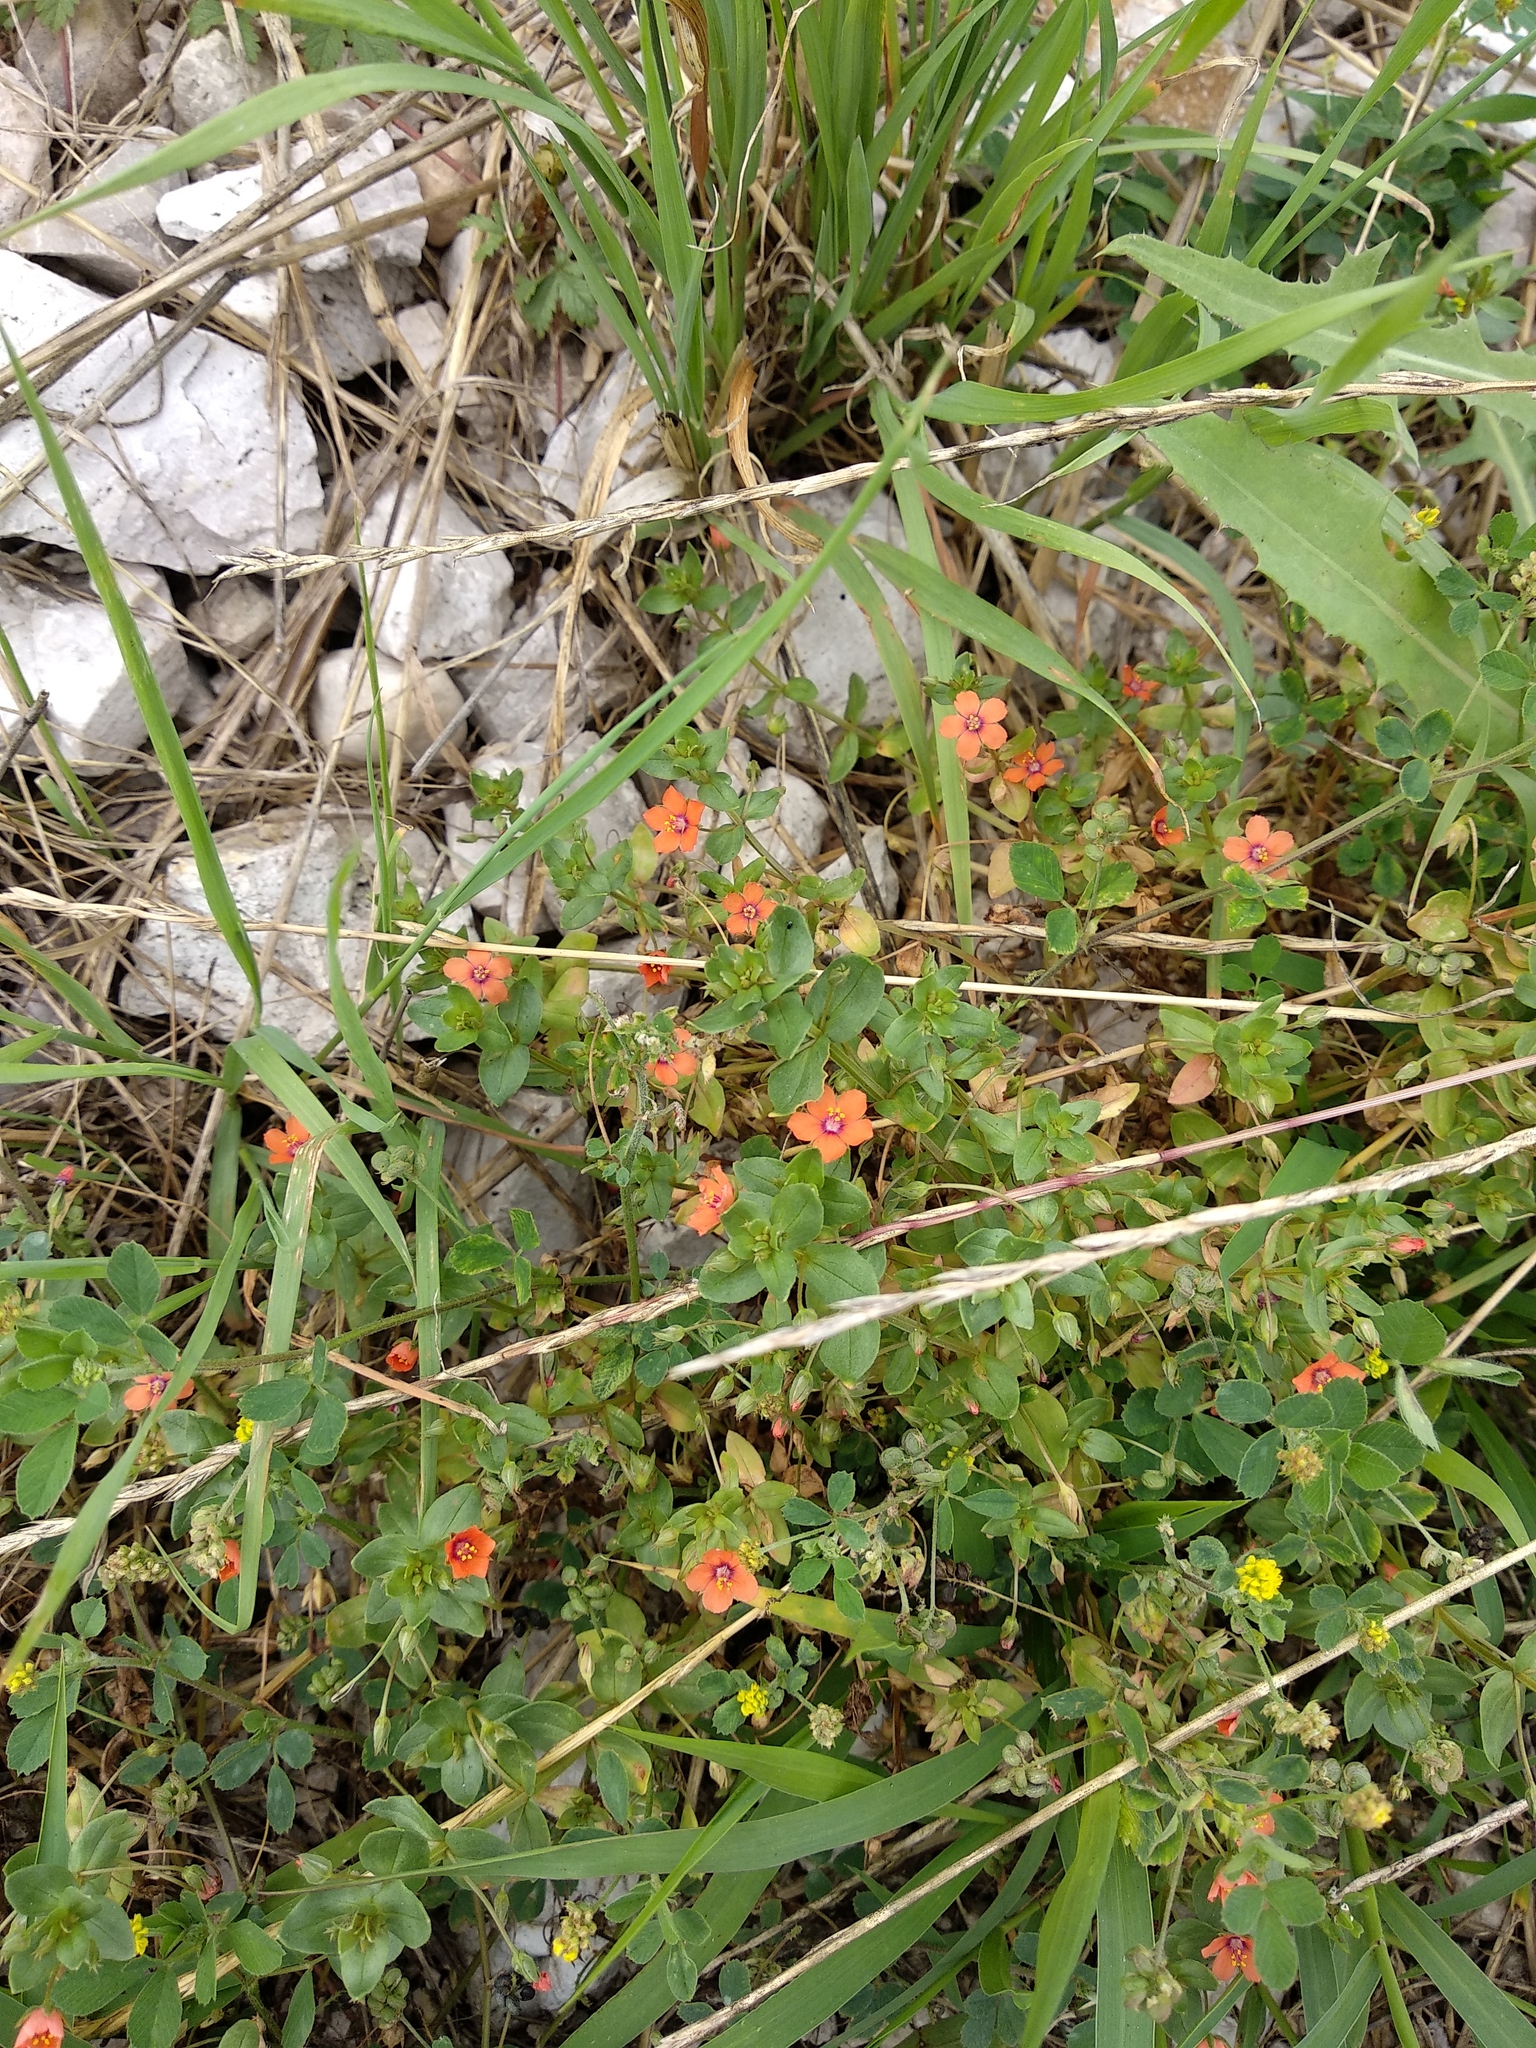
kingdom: Plantae
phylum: Tracheophyta
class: Magnoliopsida
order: Ericales
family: Primulaceae
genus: Lysimachia
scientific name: Lysimachia arvensis
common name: Scarlet pimpernel
